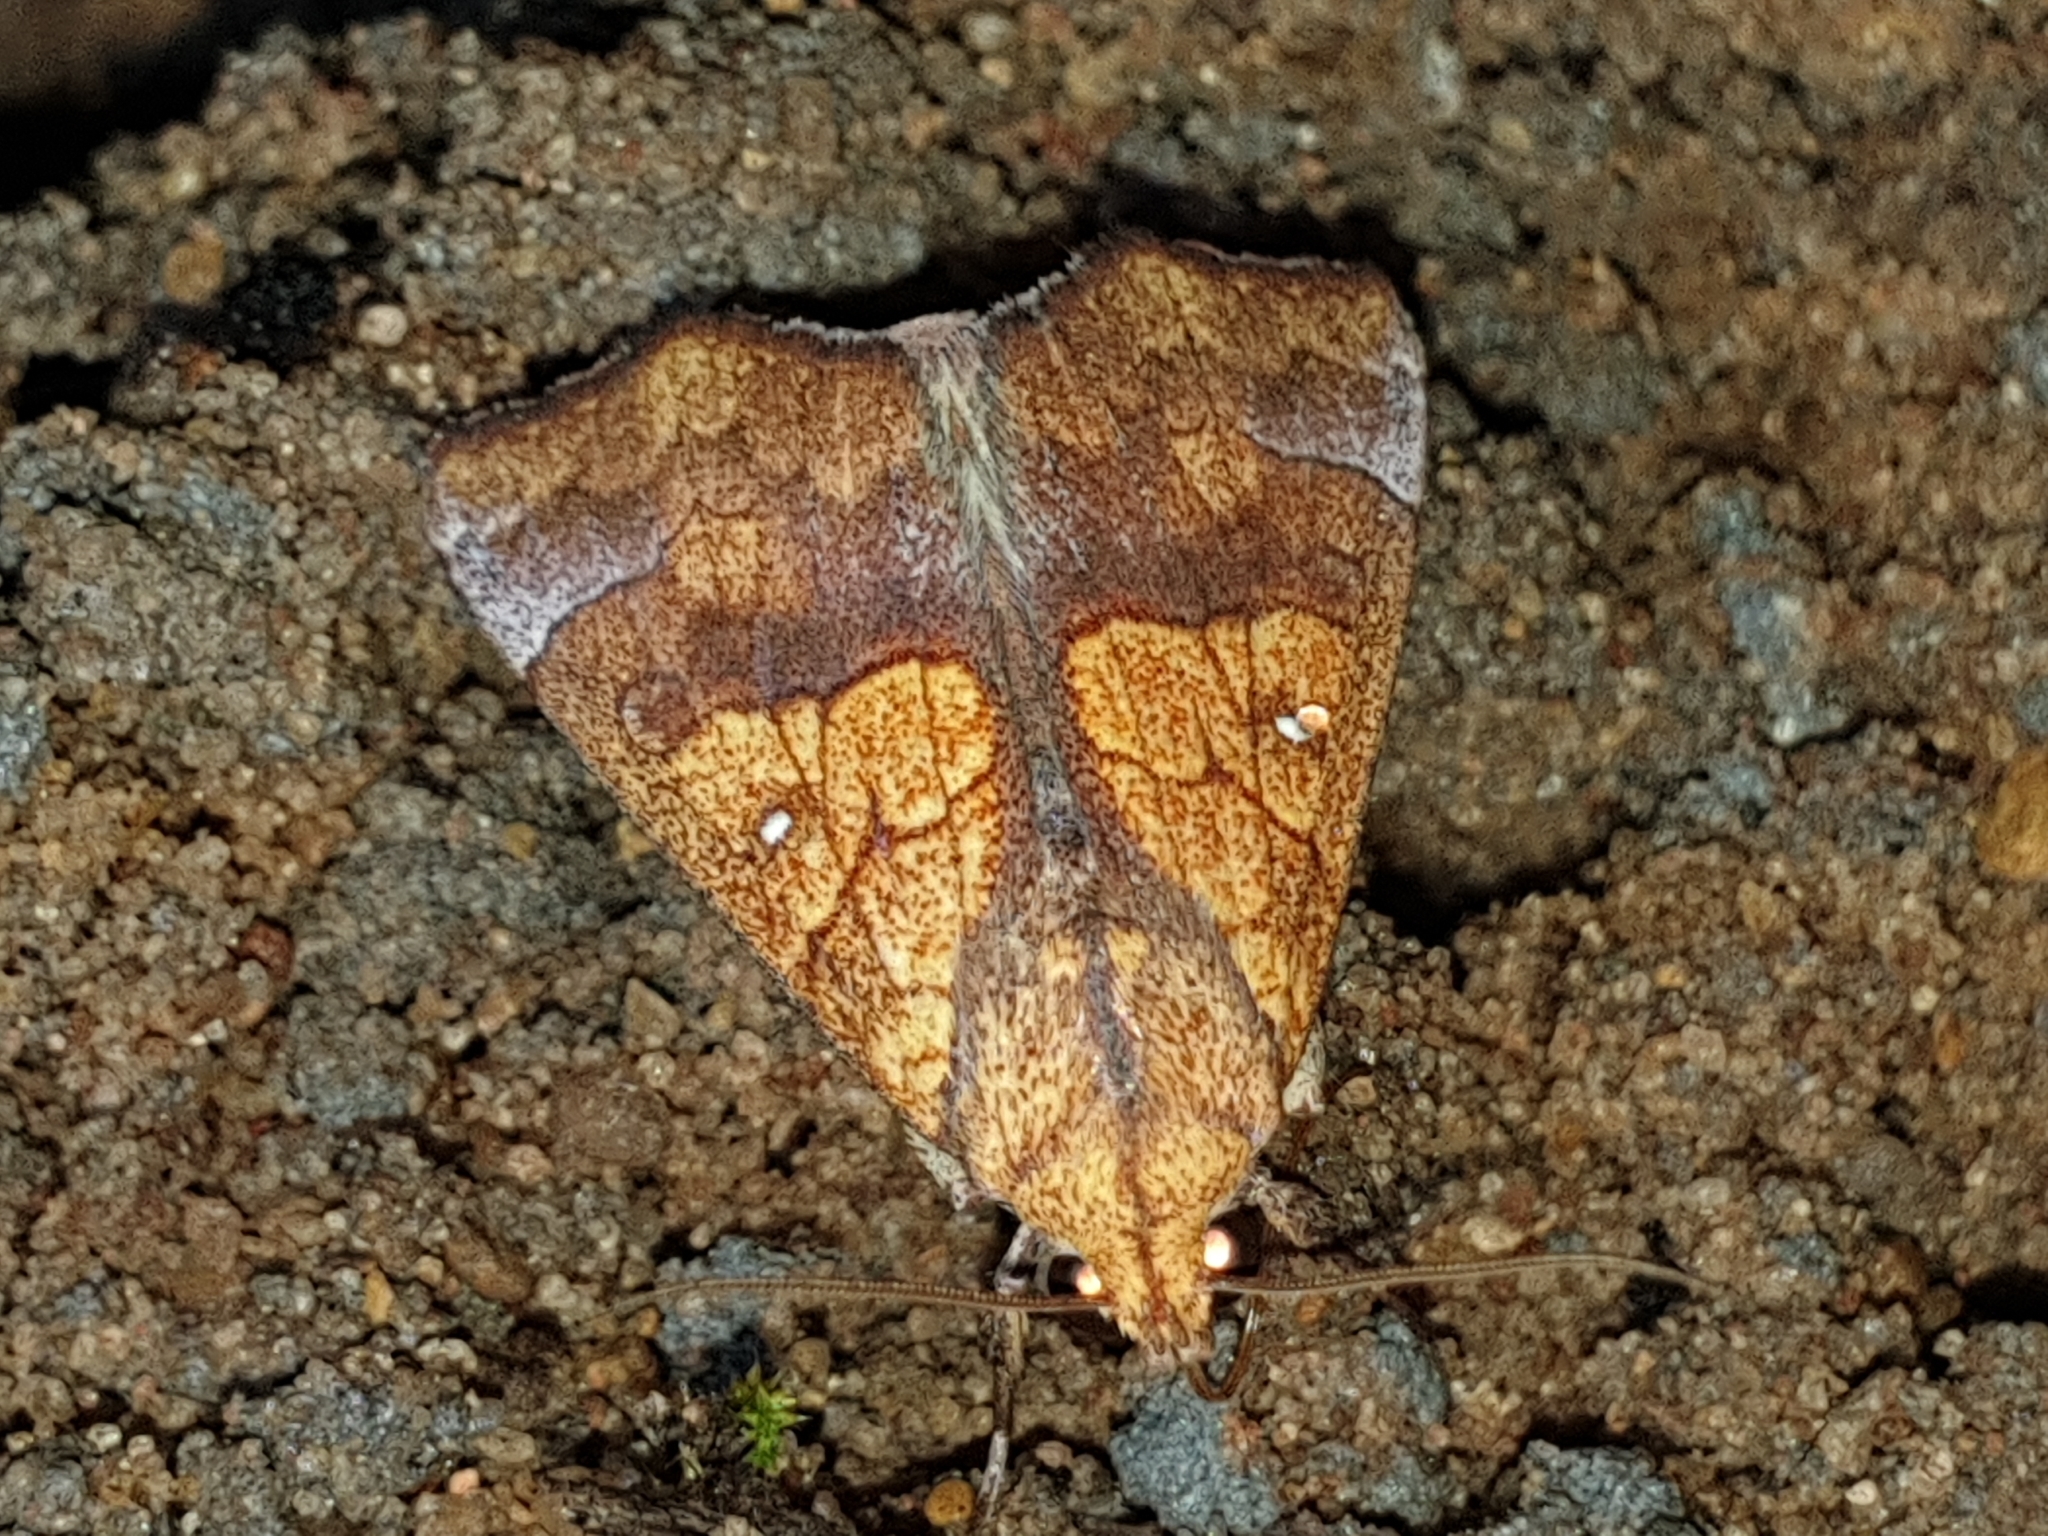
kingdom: Animalia
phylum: Arthropoda
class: Insecta
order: Lepidoptera
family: Erebidae
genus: Anomis
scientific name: Anomis flava
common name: Moth
